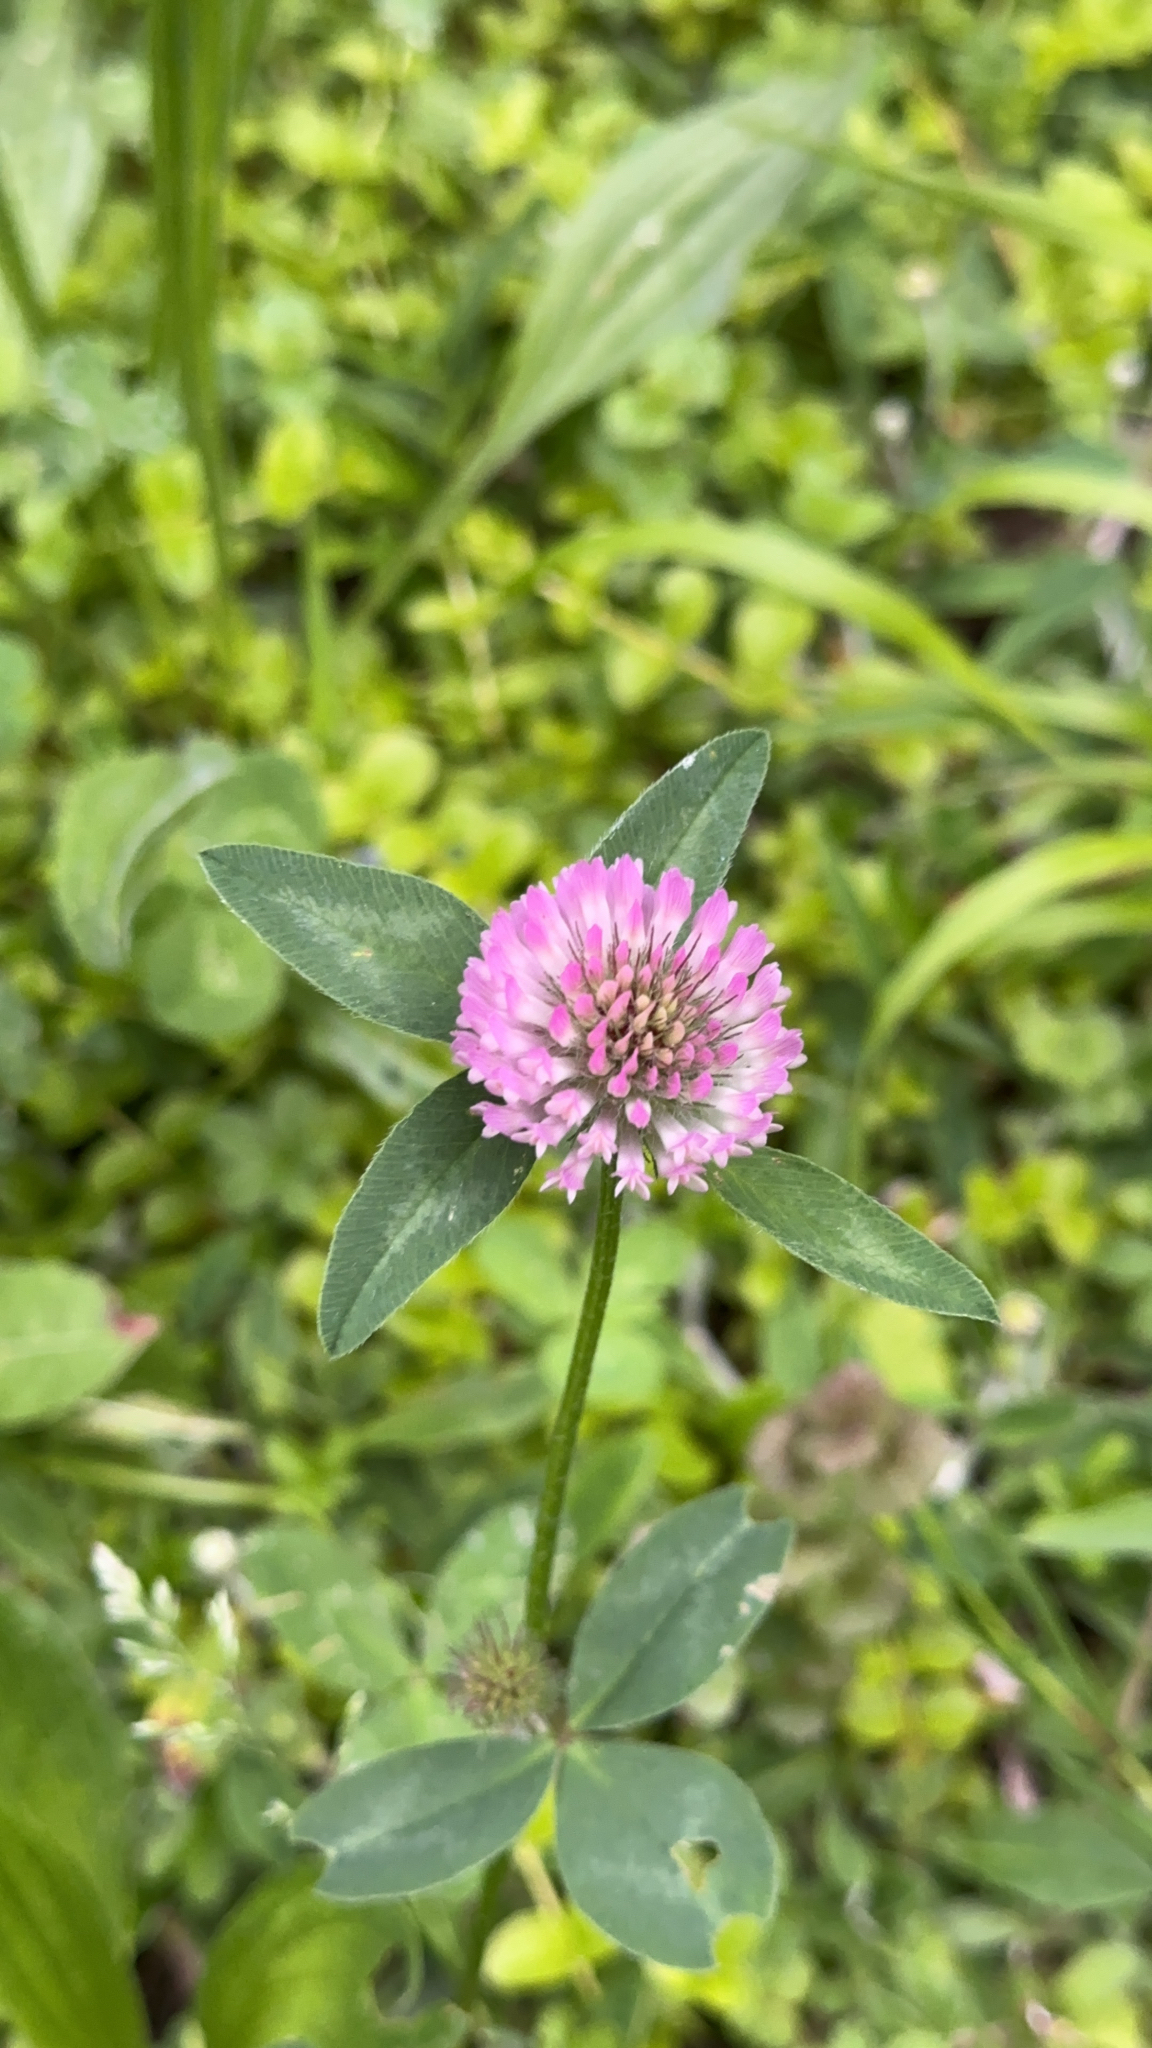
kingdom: Plantae
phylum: Tracheophyta
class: Magnoliopsida
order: Fabales
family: Fabaceae
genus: Trifolium
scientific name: Trifolium pratense
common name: Red clover
